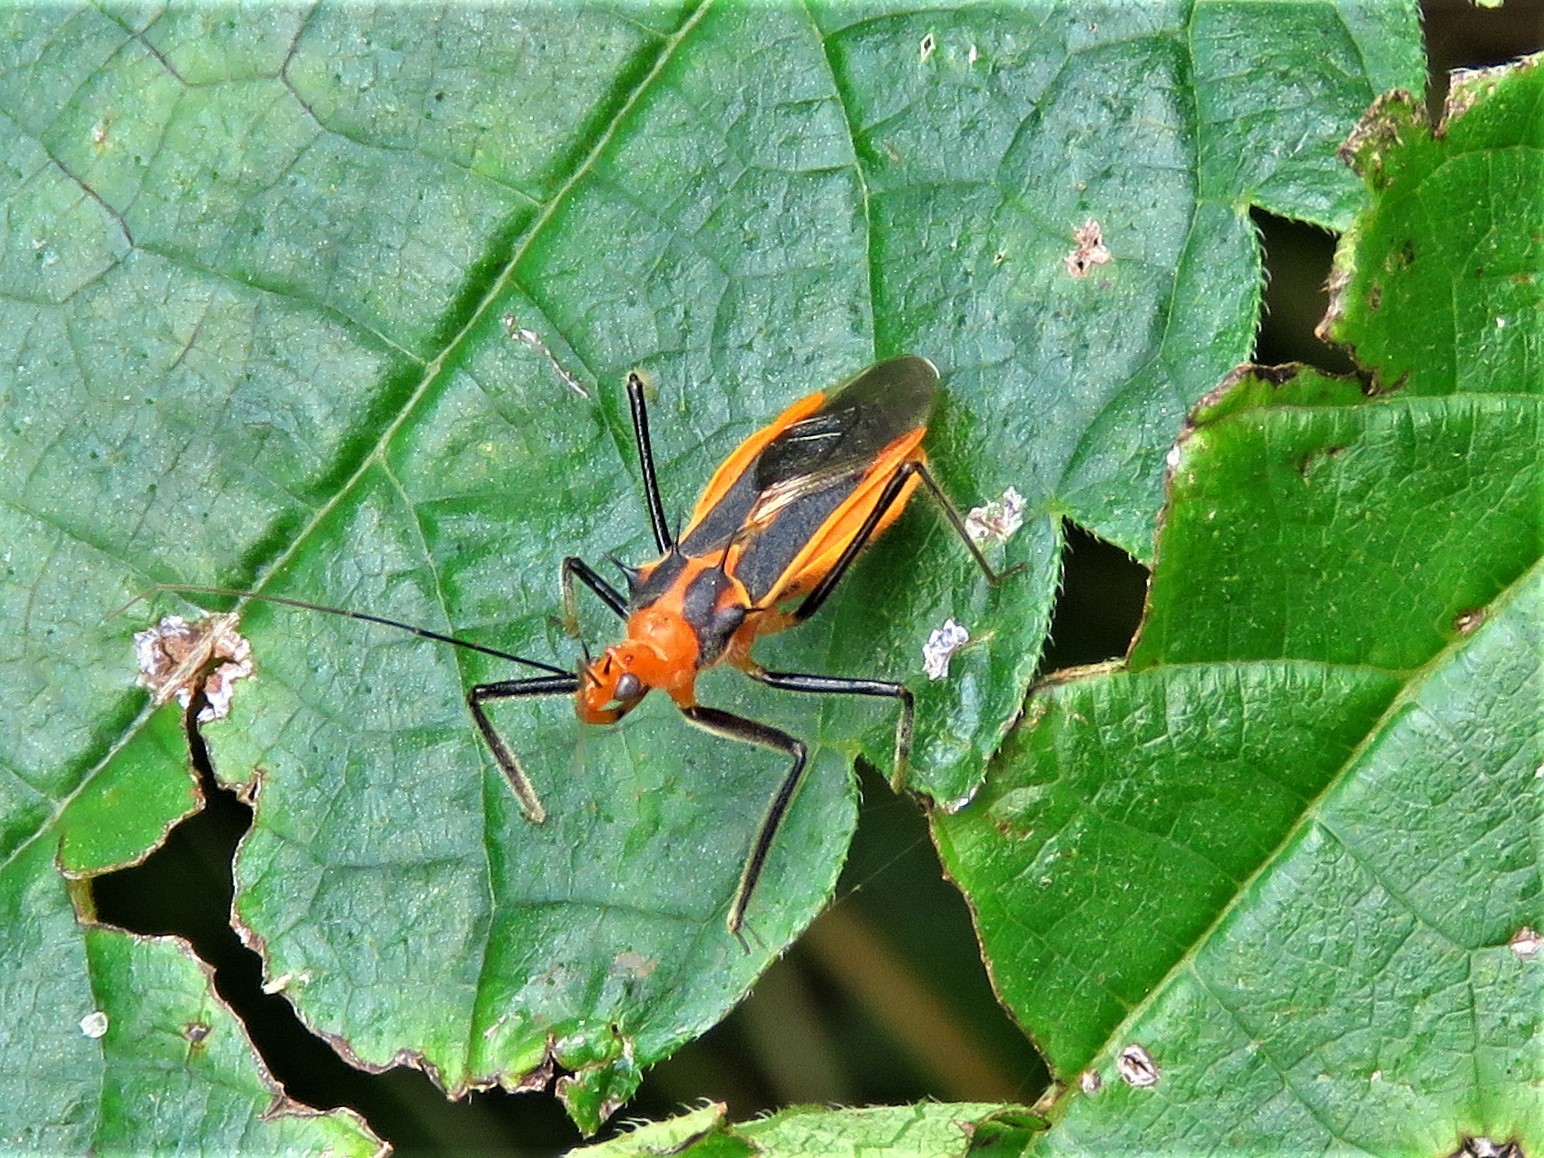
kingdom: Animalia
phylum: Arthropoda
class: Insecta
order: Hemiptera
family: Reduviidae
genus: Repipta
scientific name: Repipta taurus
